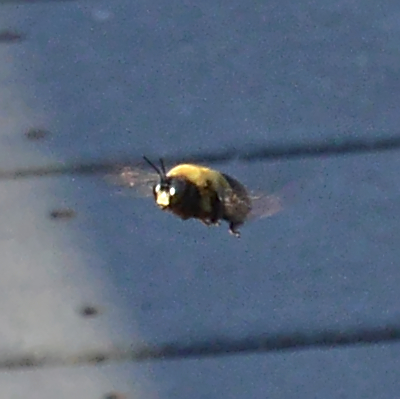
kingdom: Animalia
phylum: Arthropoda
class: Insecta
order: Hymenoptera
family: Apidae
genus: Xylocopa
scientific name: Xylocopa virginica
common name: Carpenter bee
